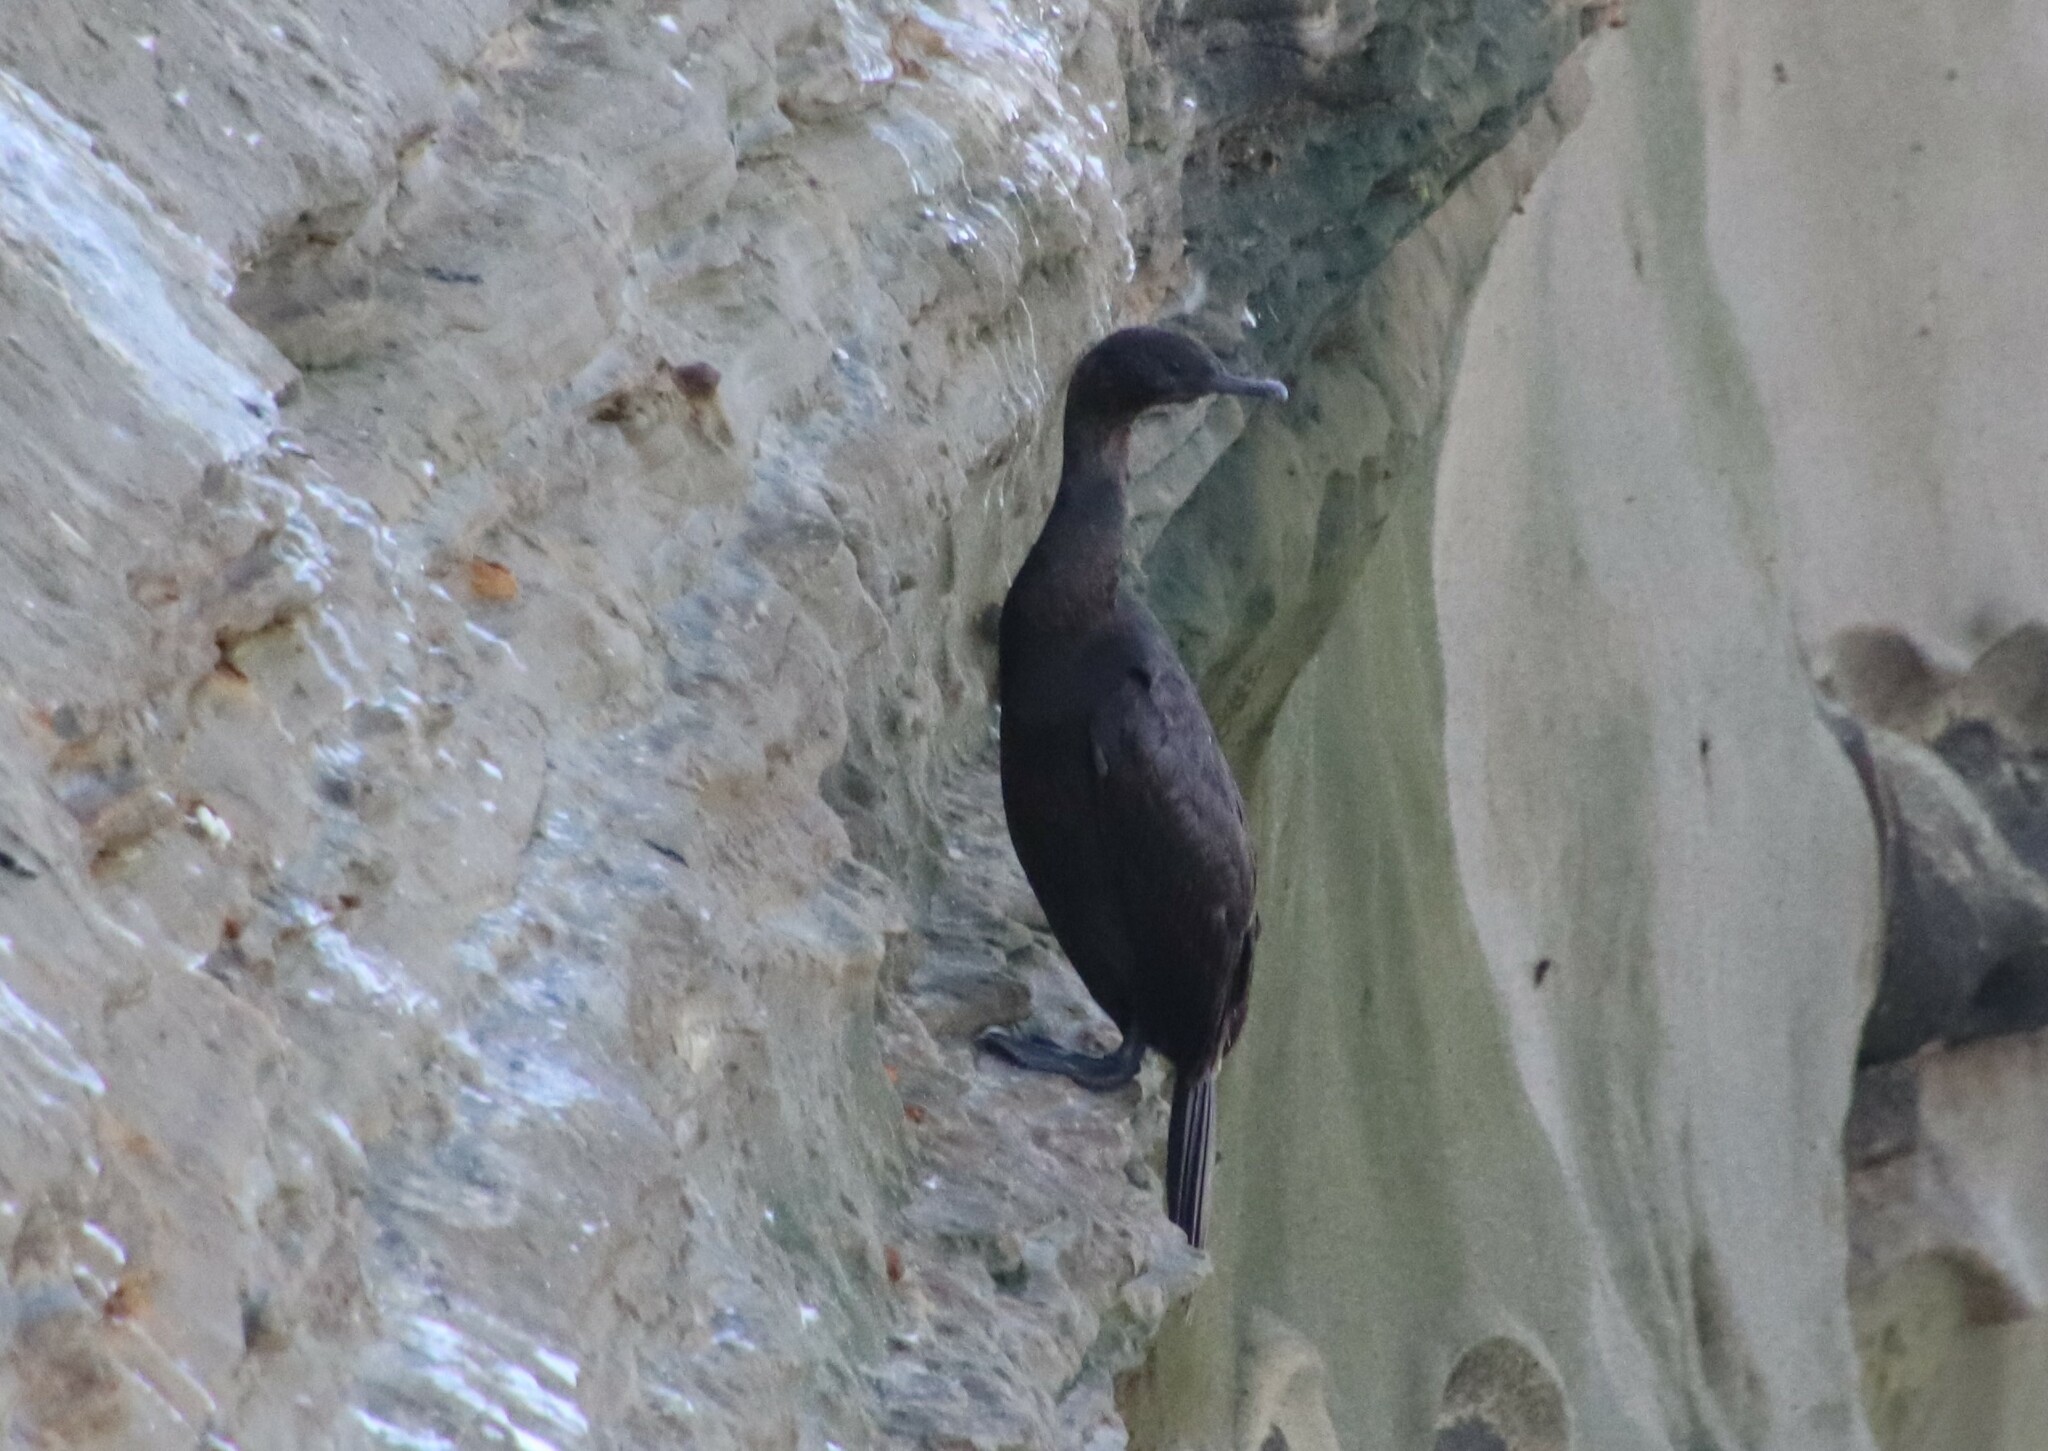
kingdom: Animalia
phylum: Chordata
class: Aves
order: Suliformes
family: Phalacrocoracidae
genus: Phalacrocorax
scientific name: Phalacrocorax pelagicus
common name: Pelagic cormorant
